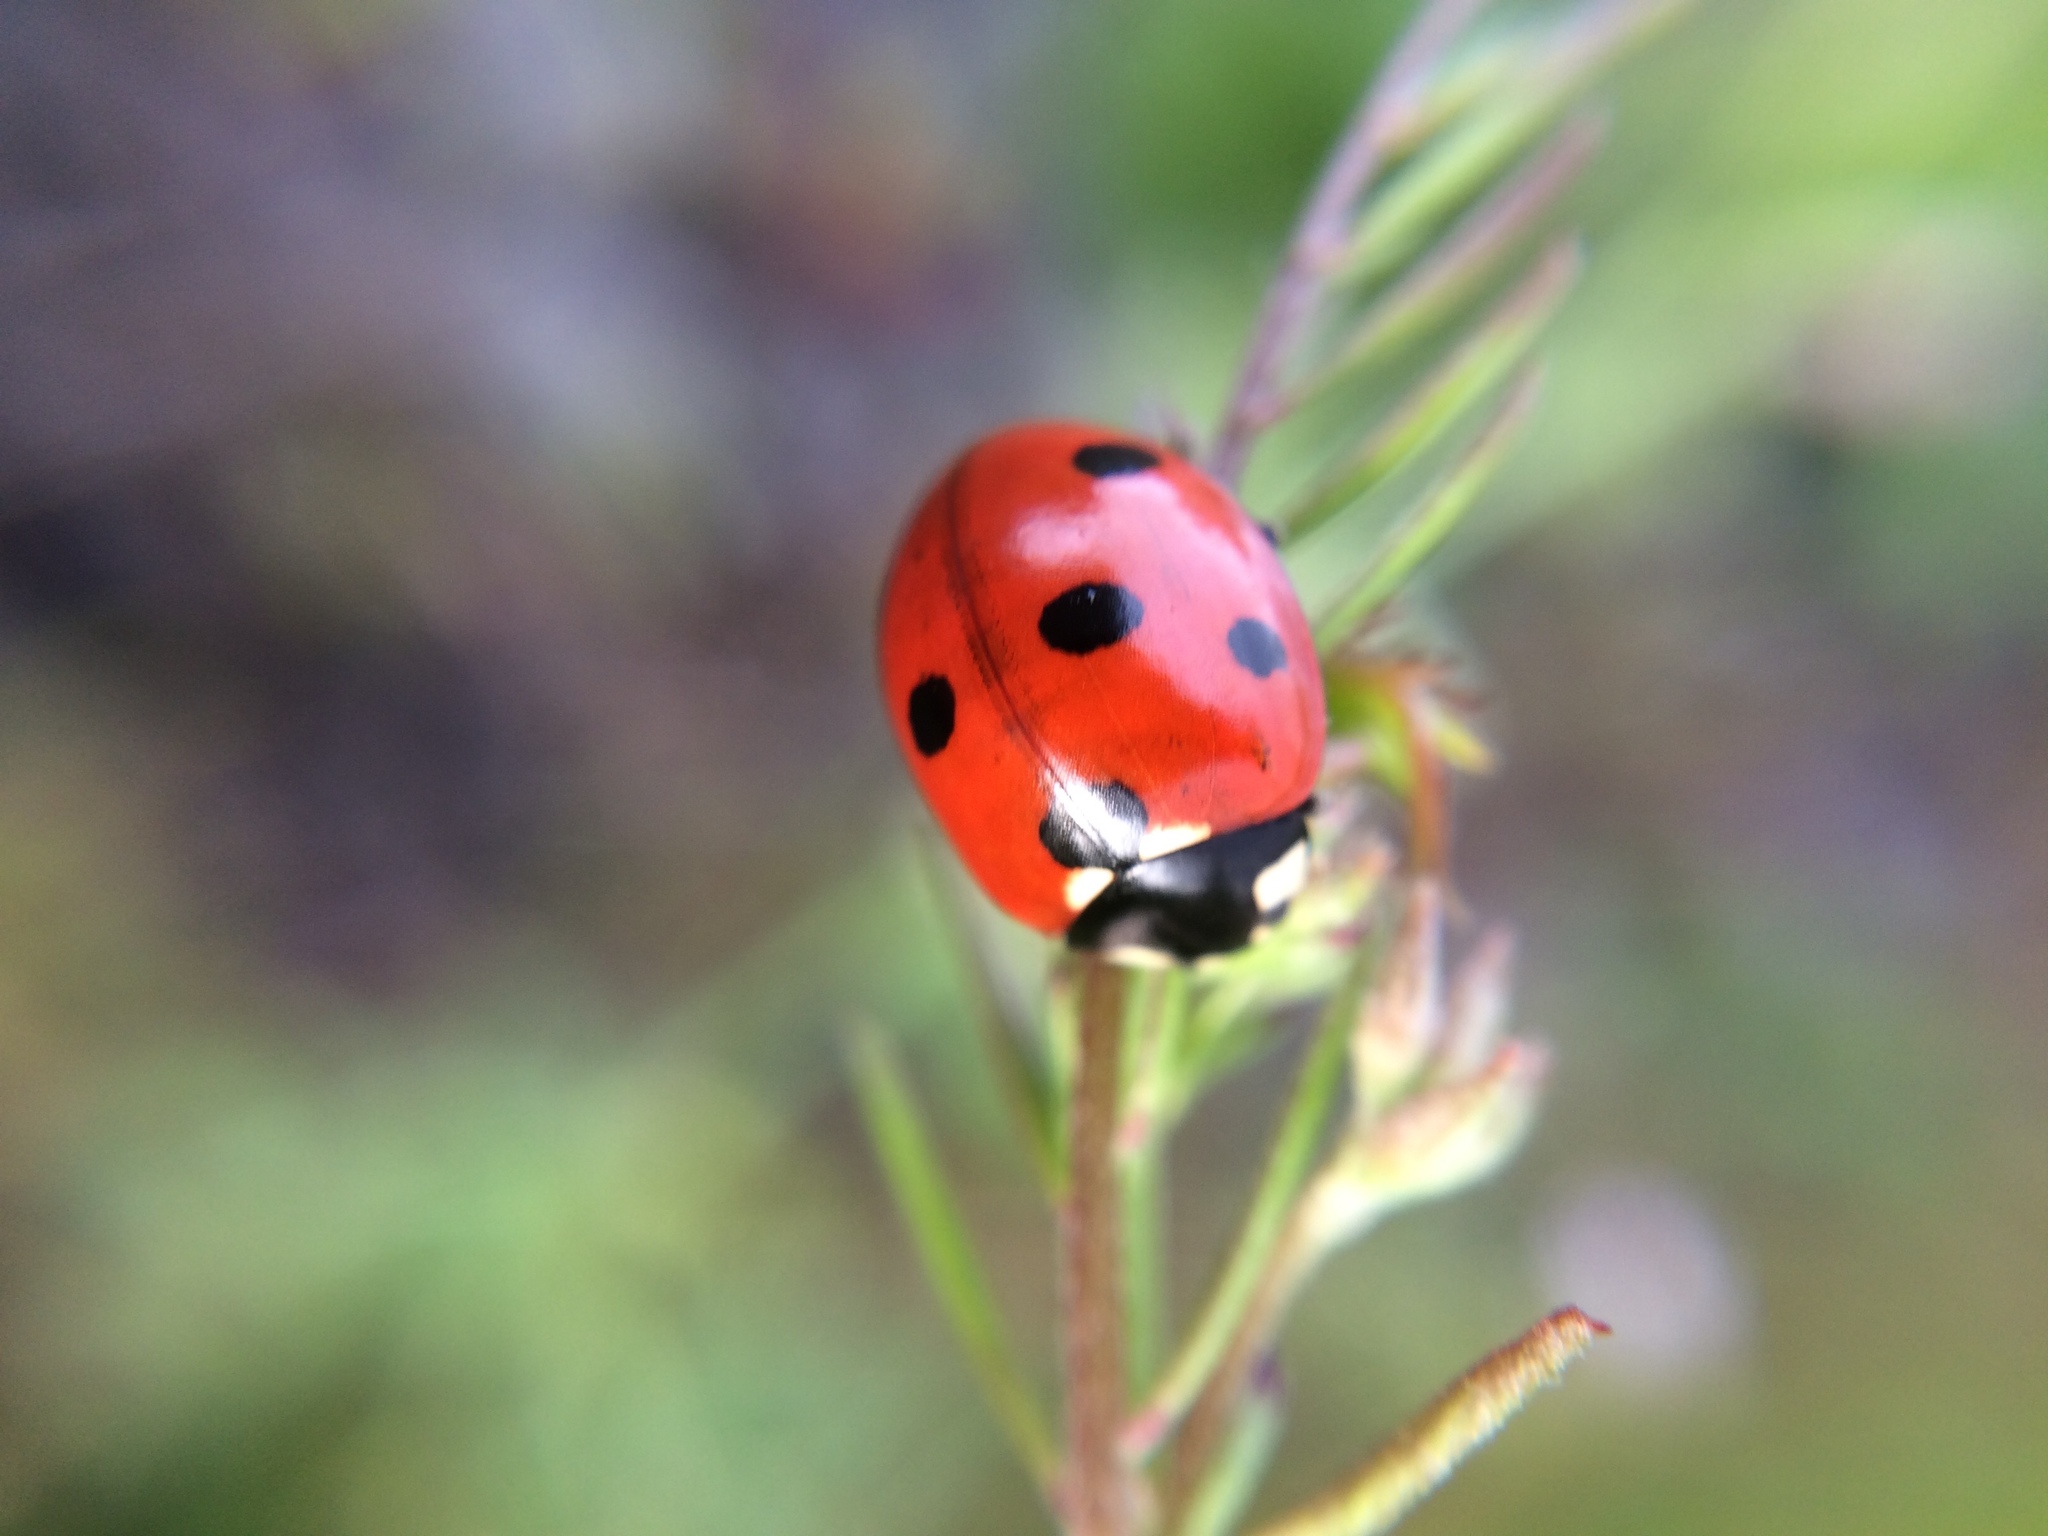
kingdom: Animalia
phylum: Arthropoda
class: Insecta
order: Coleoptera
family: Coccinellidae
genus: Coccinella
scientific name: Coccinella septempunctata
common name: Sevenspotted lady beetle
